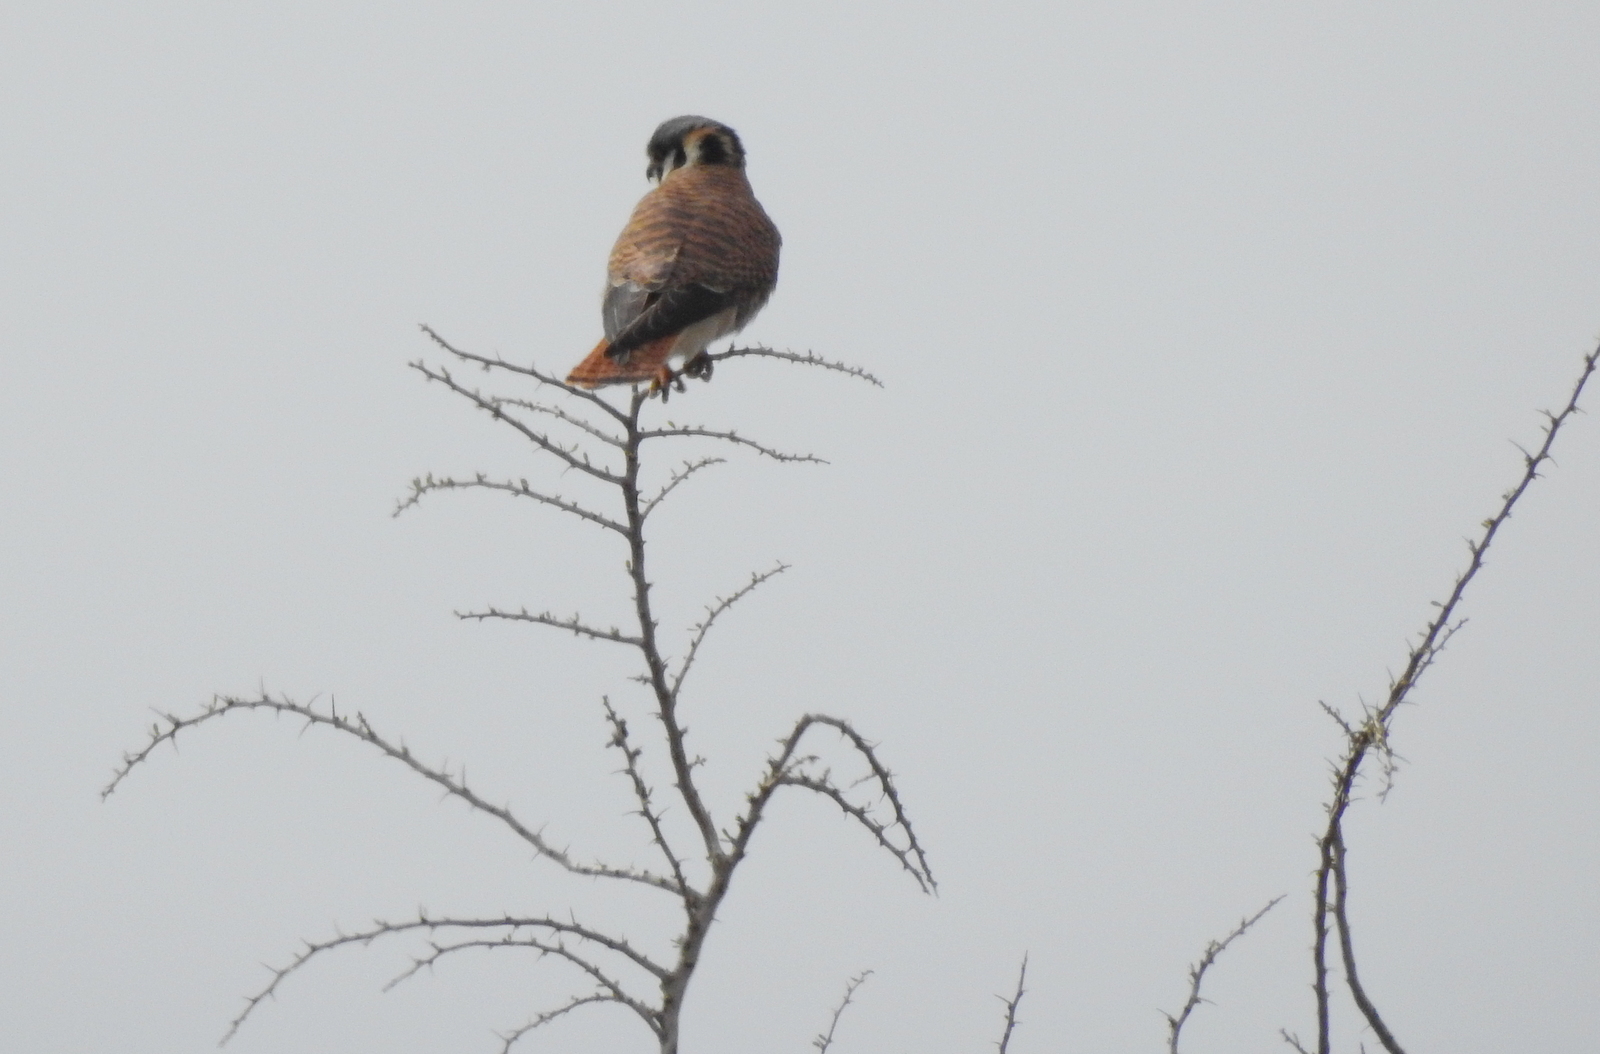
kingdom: Animalia
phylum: Chordata
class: Aves
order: Falconiformes
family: Falconidae
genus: Falco
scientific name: Falco sparverius
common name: American kestrel
